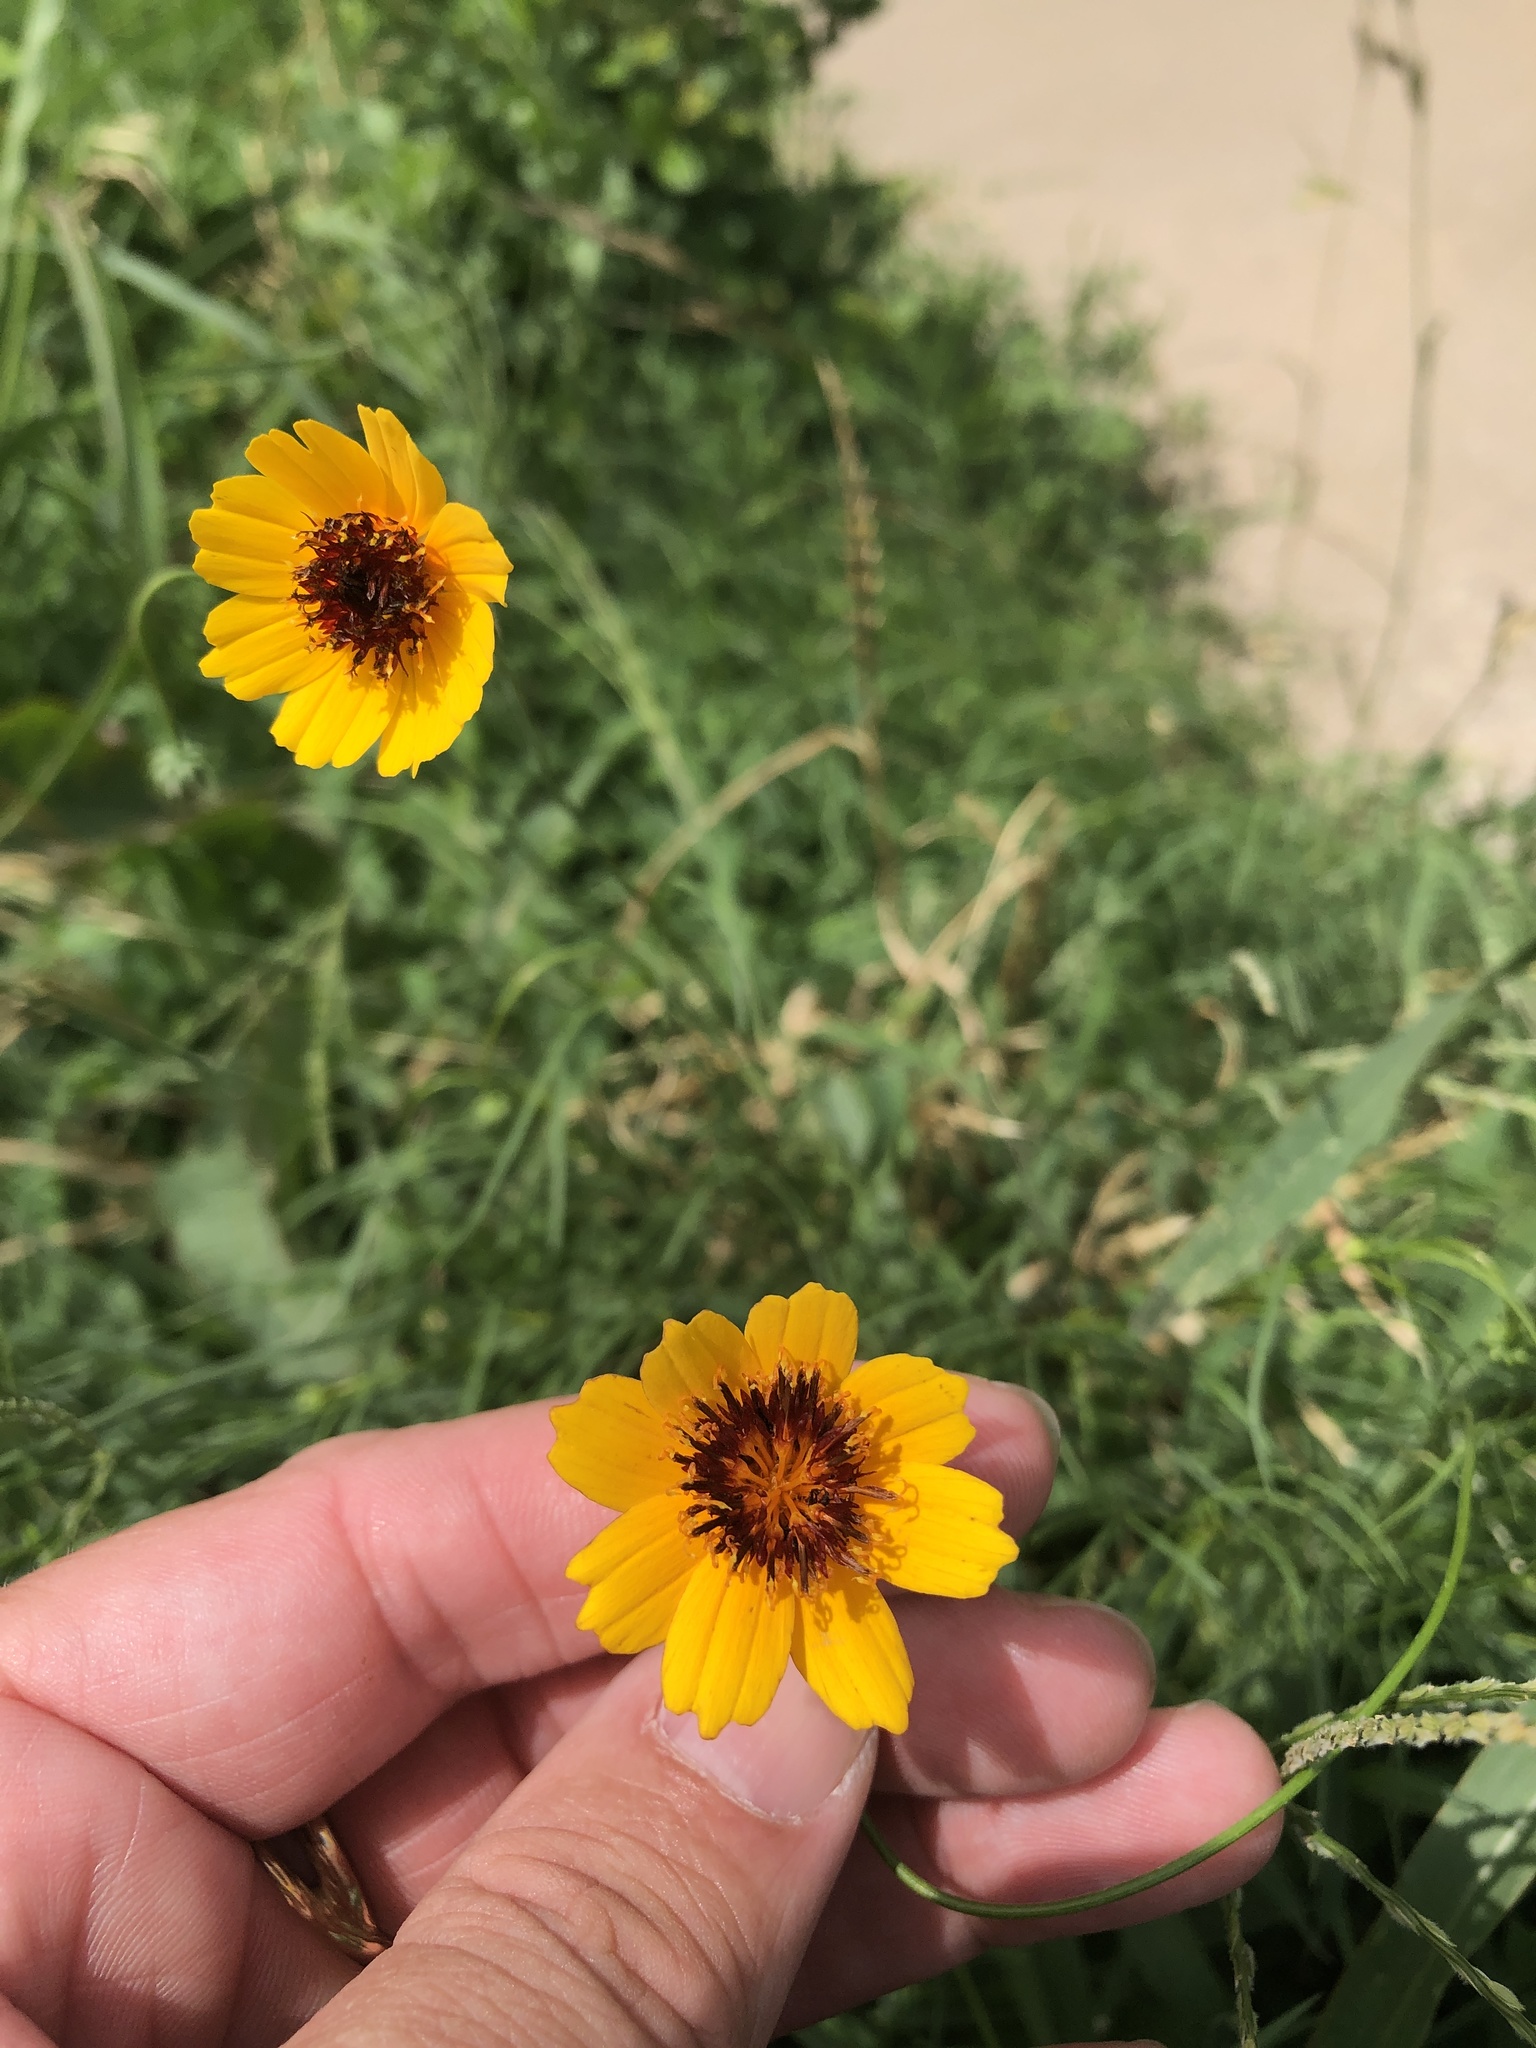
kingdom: Plantae
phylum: Tracheophyta
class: Magnoliopsida
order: Asterales
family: Asteraceae
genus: Thelesperma
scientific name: Thelesperma filifolium
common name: Stiff greenthread
